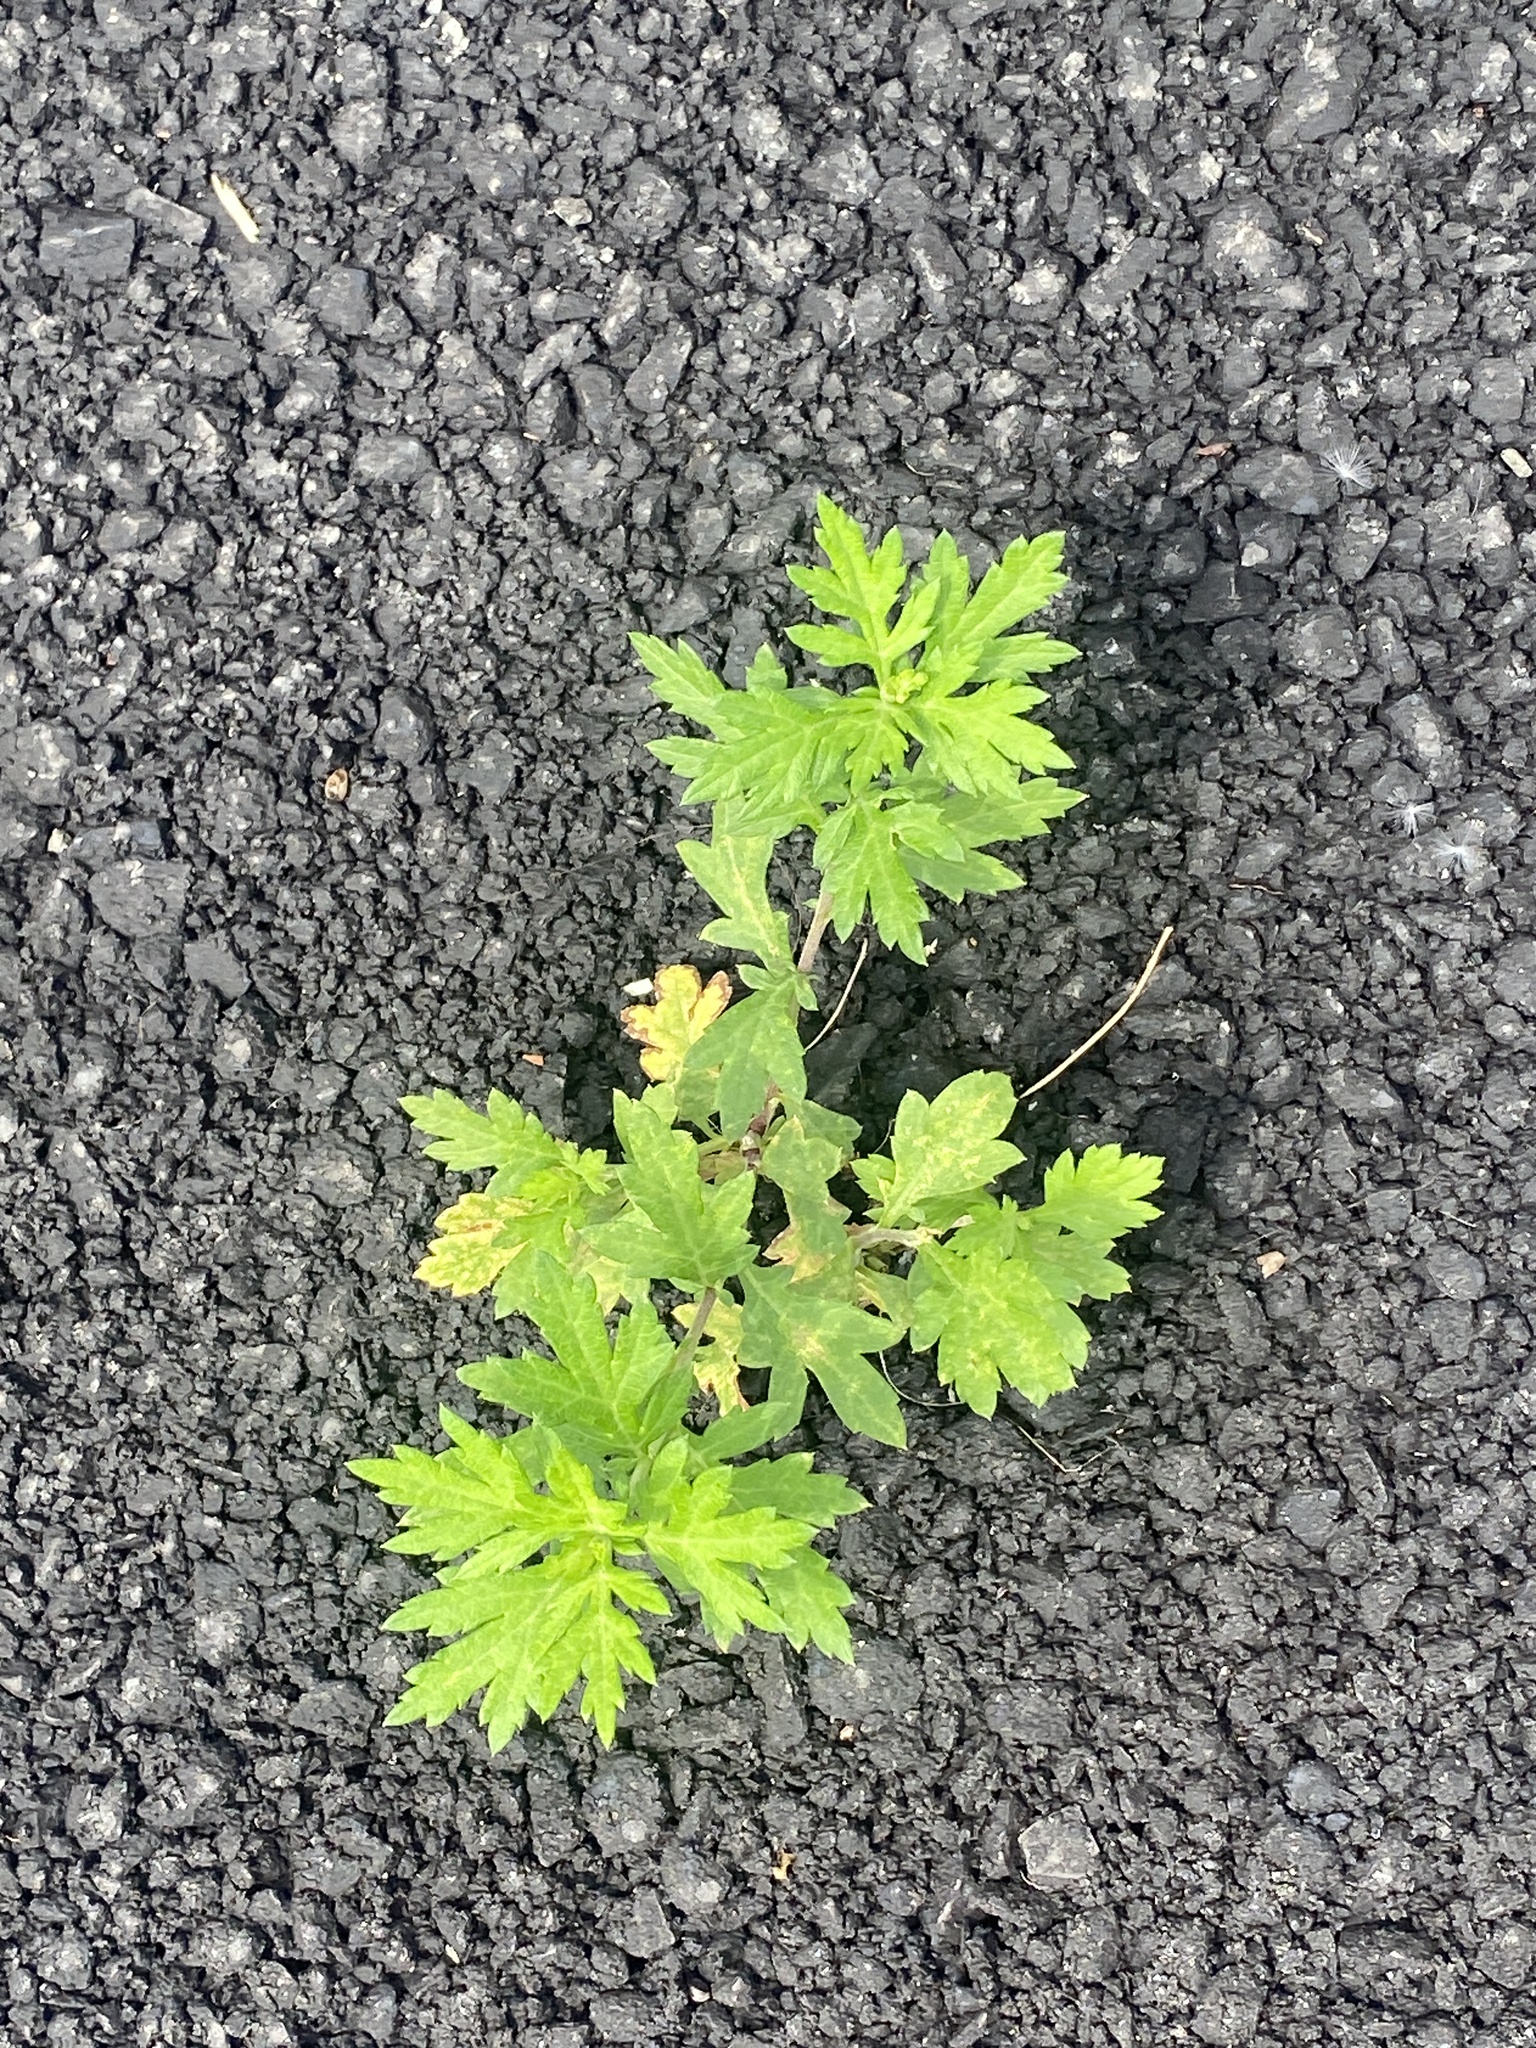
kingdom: Plantae
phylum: Tracheophyta
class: Magnoliopsida
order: Asterales
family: Asteraceae
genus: Artemisia
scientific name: Artemisia vulgaris
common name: Mugwort
